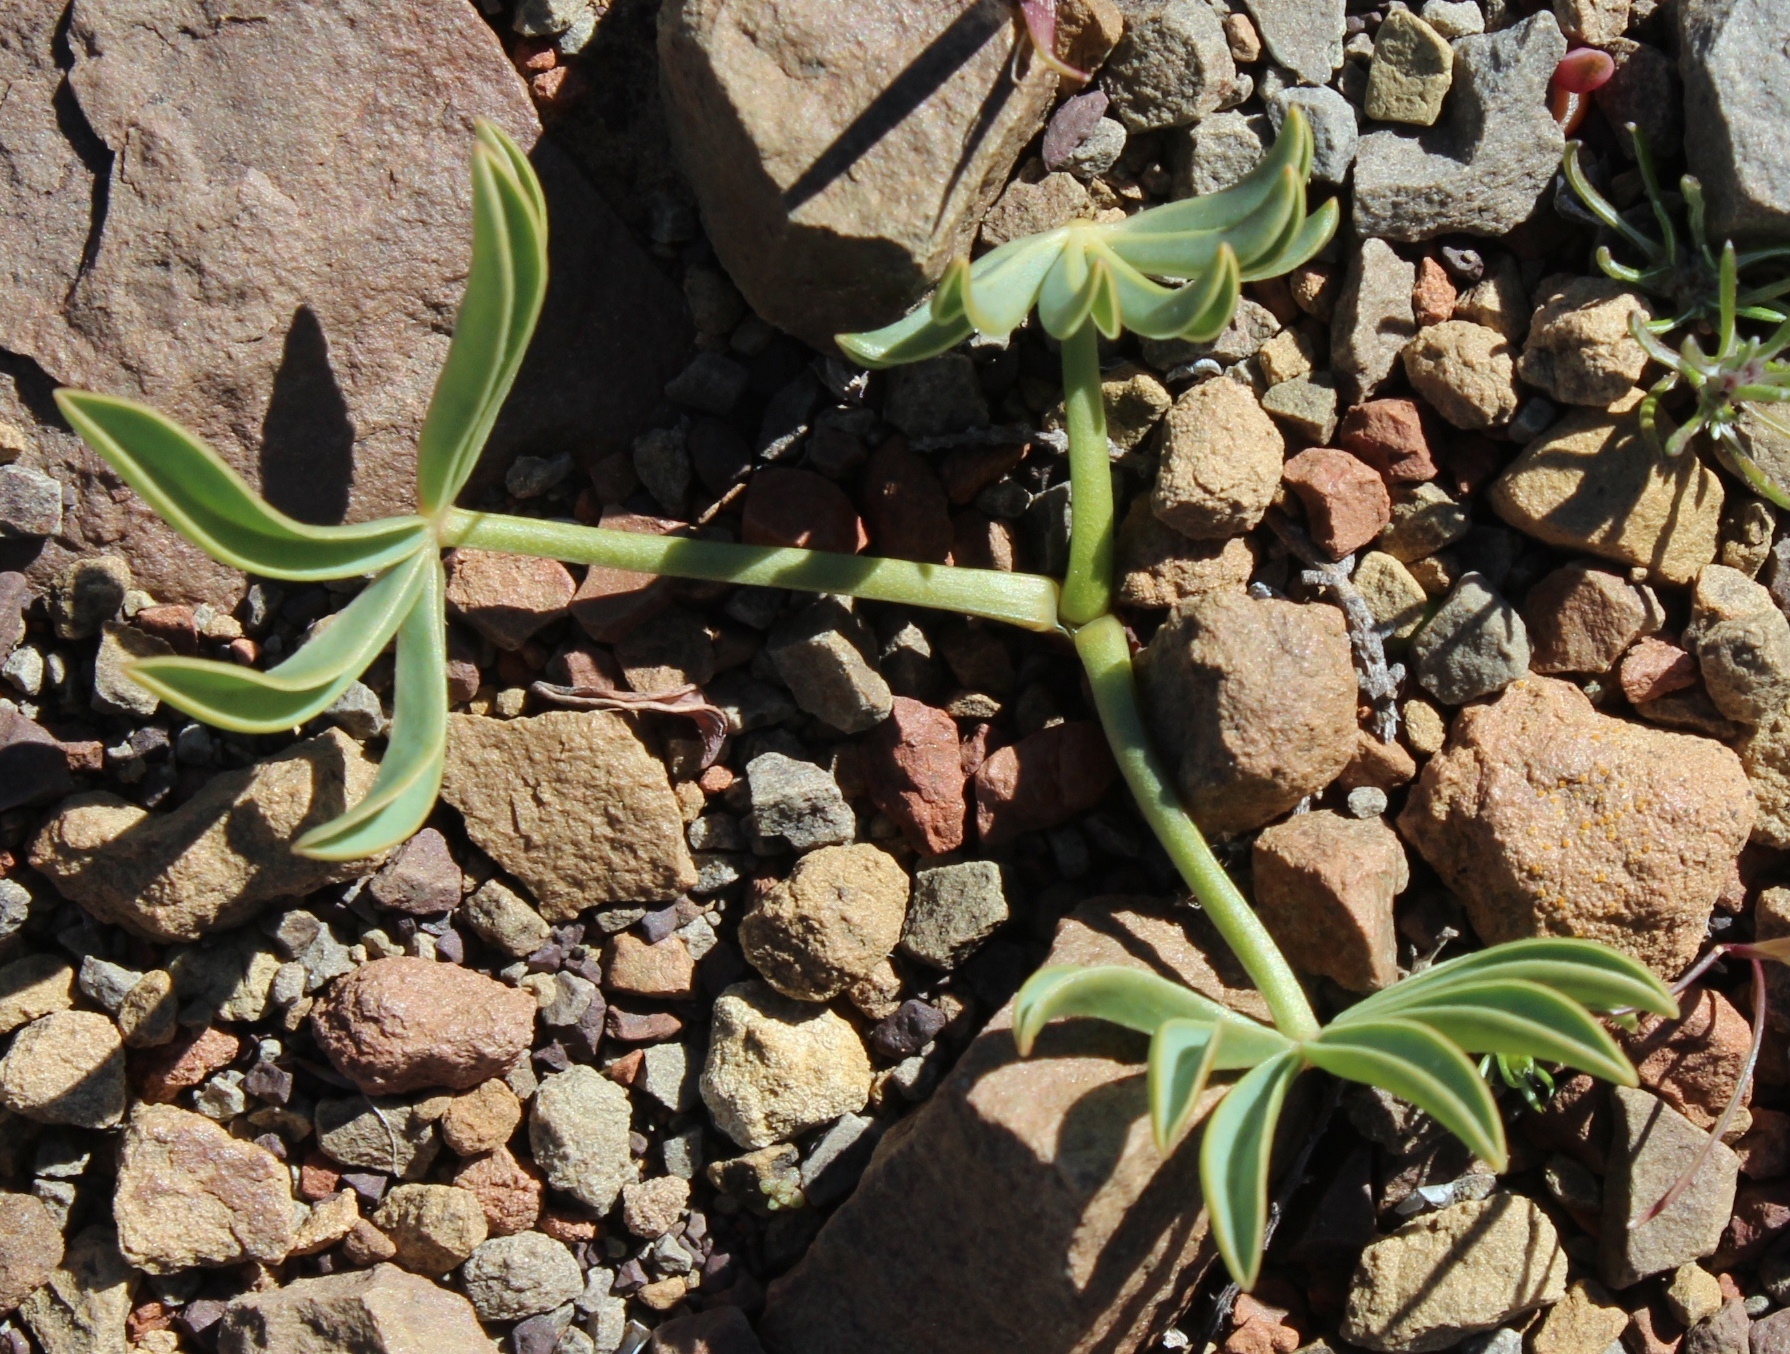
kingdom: Plantae
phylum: Tracheophyta
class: Magnoliopsida
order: Oxalidales
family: Oxalidaceae
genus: Oxalis
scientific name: Oxalis flava
